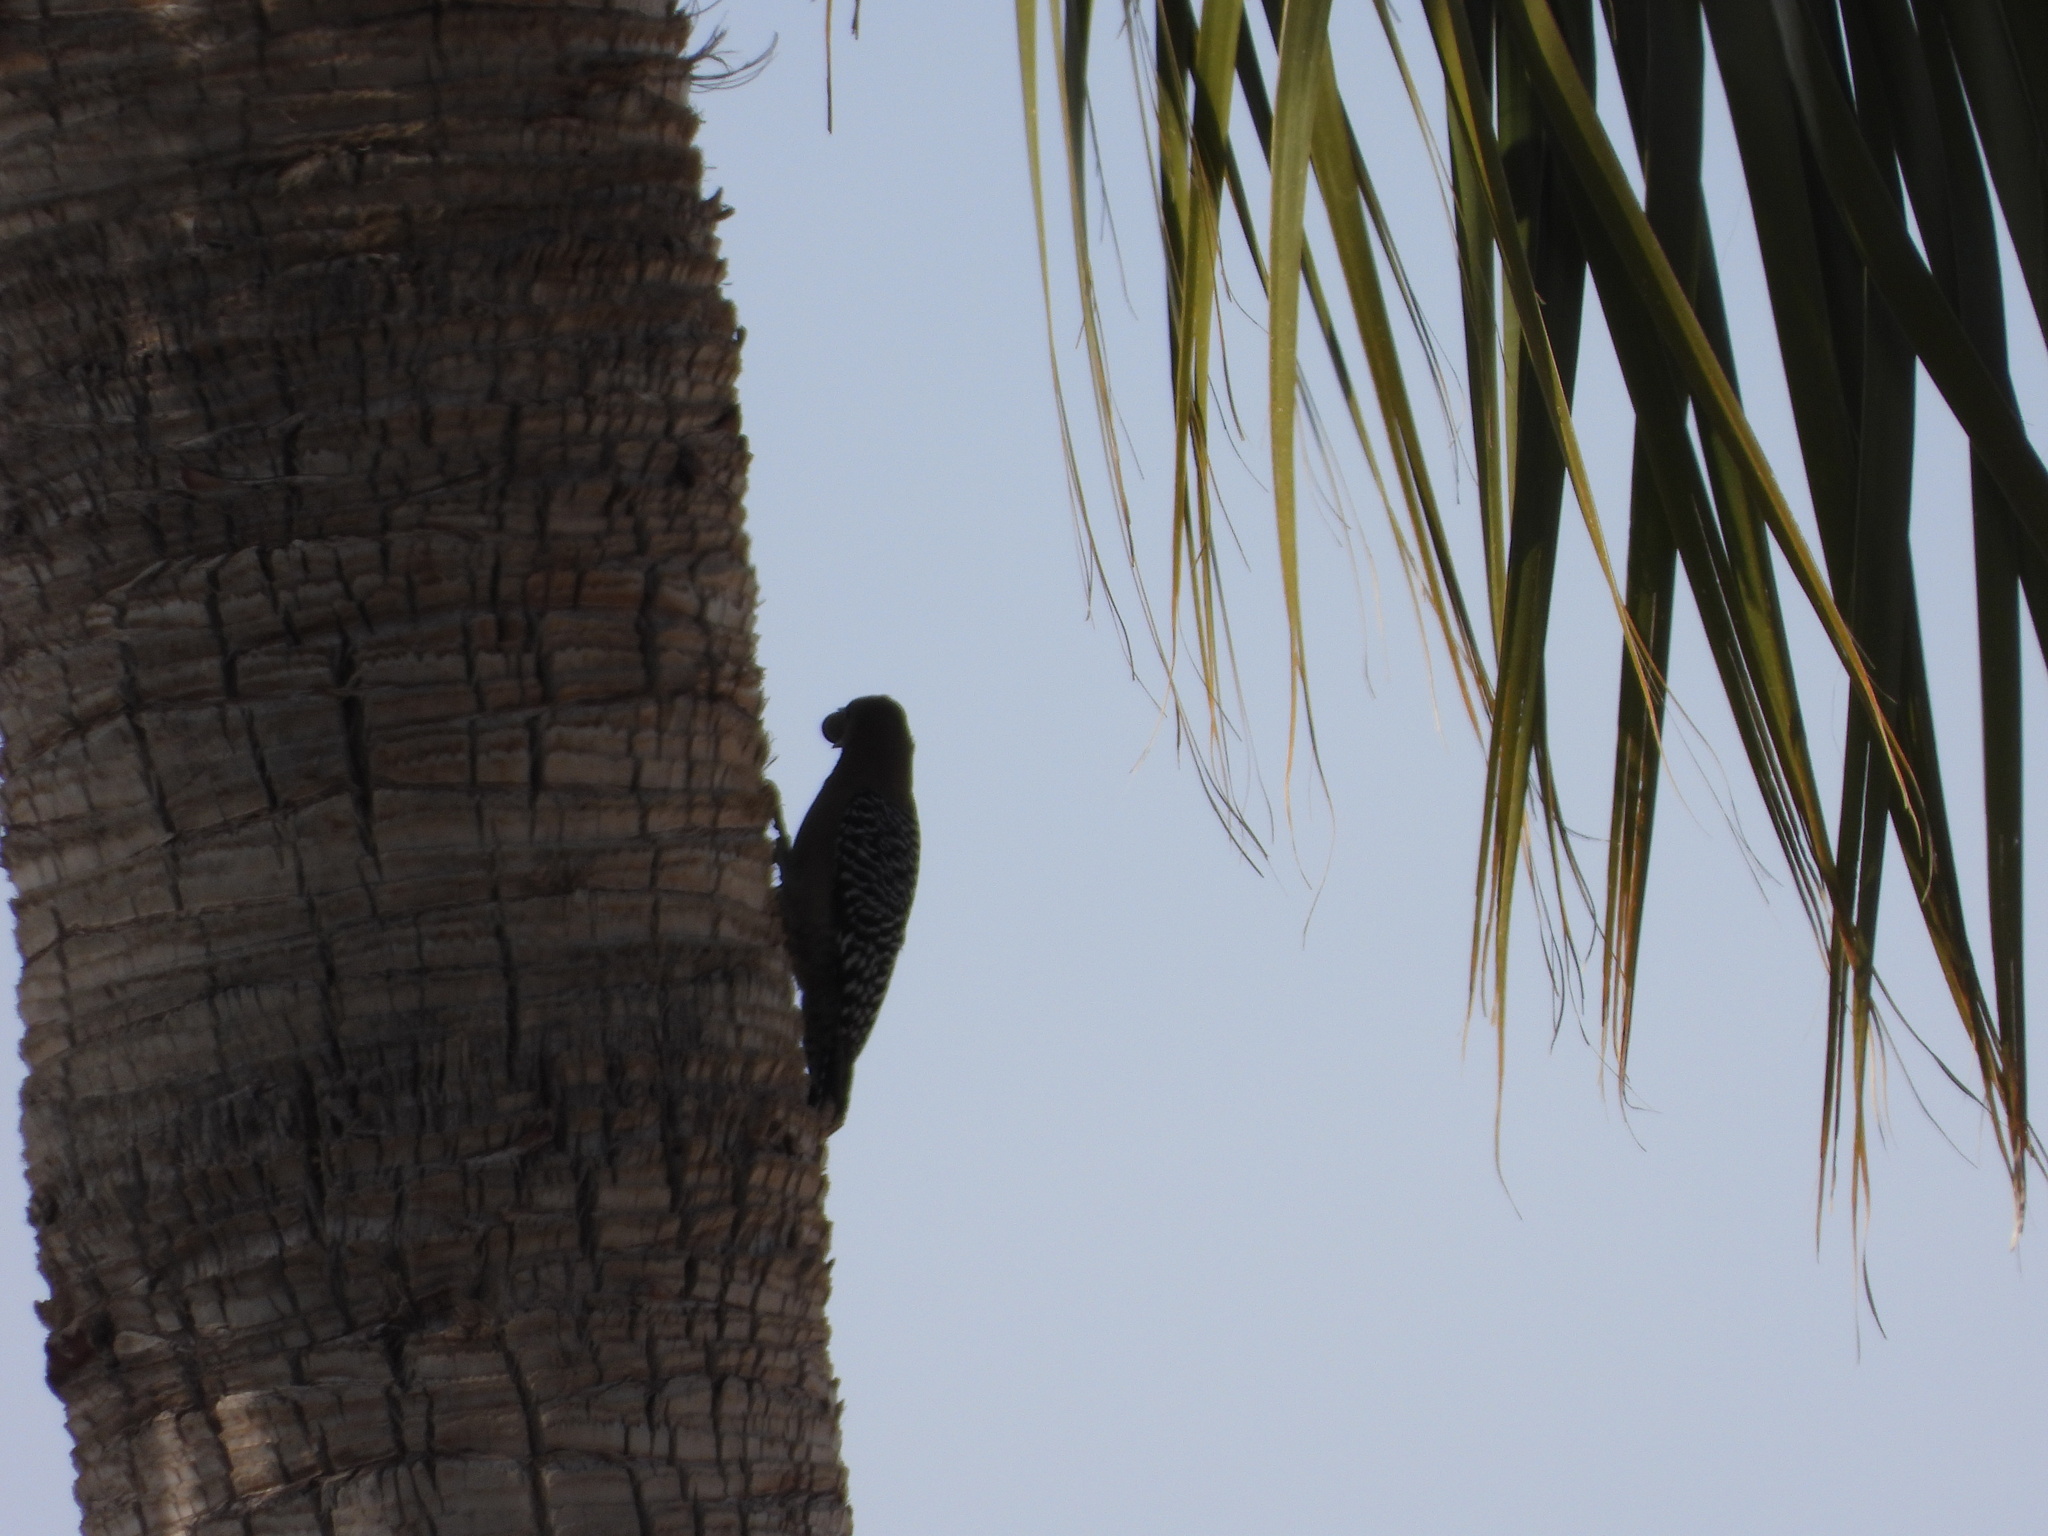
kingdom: Animalia
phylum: Chordata
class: Aves
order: Piciformes
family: Picidae
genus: Melanerpes
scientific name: Melanerpes uropygialis
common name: Gila woodpecker
